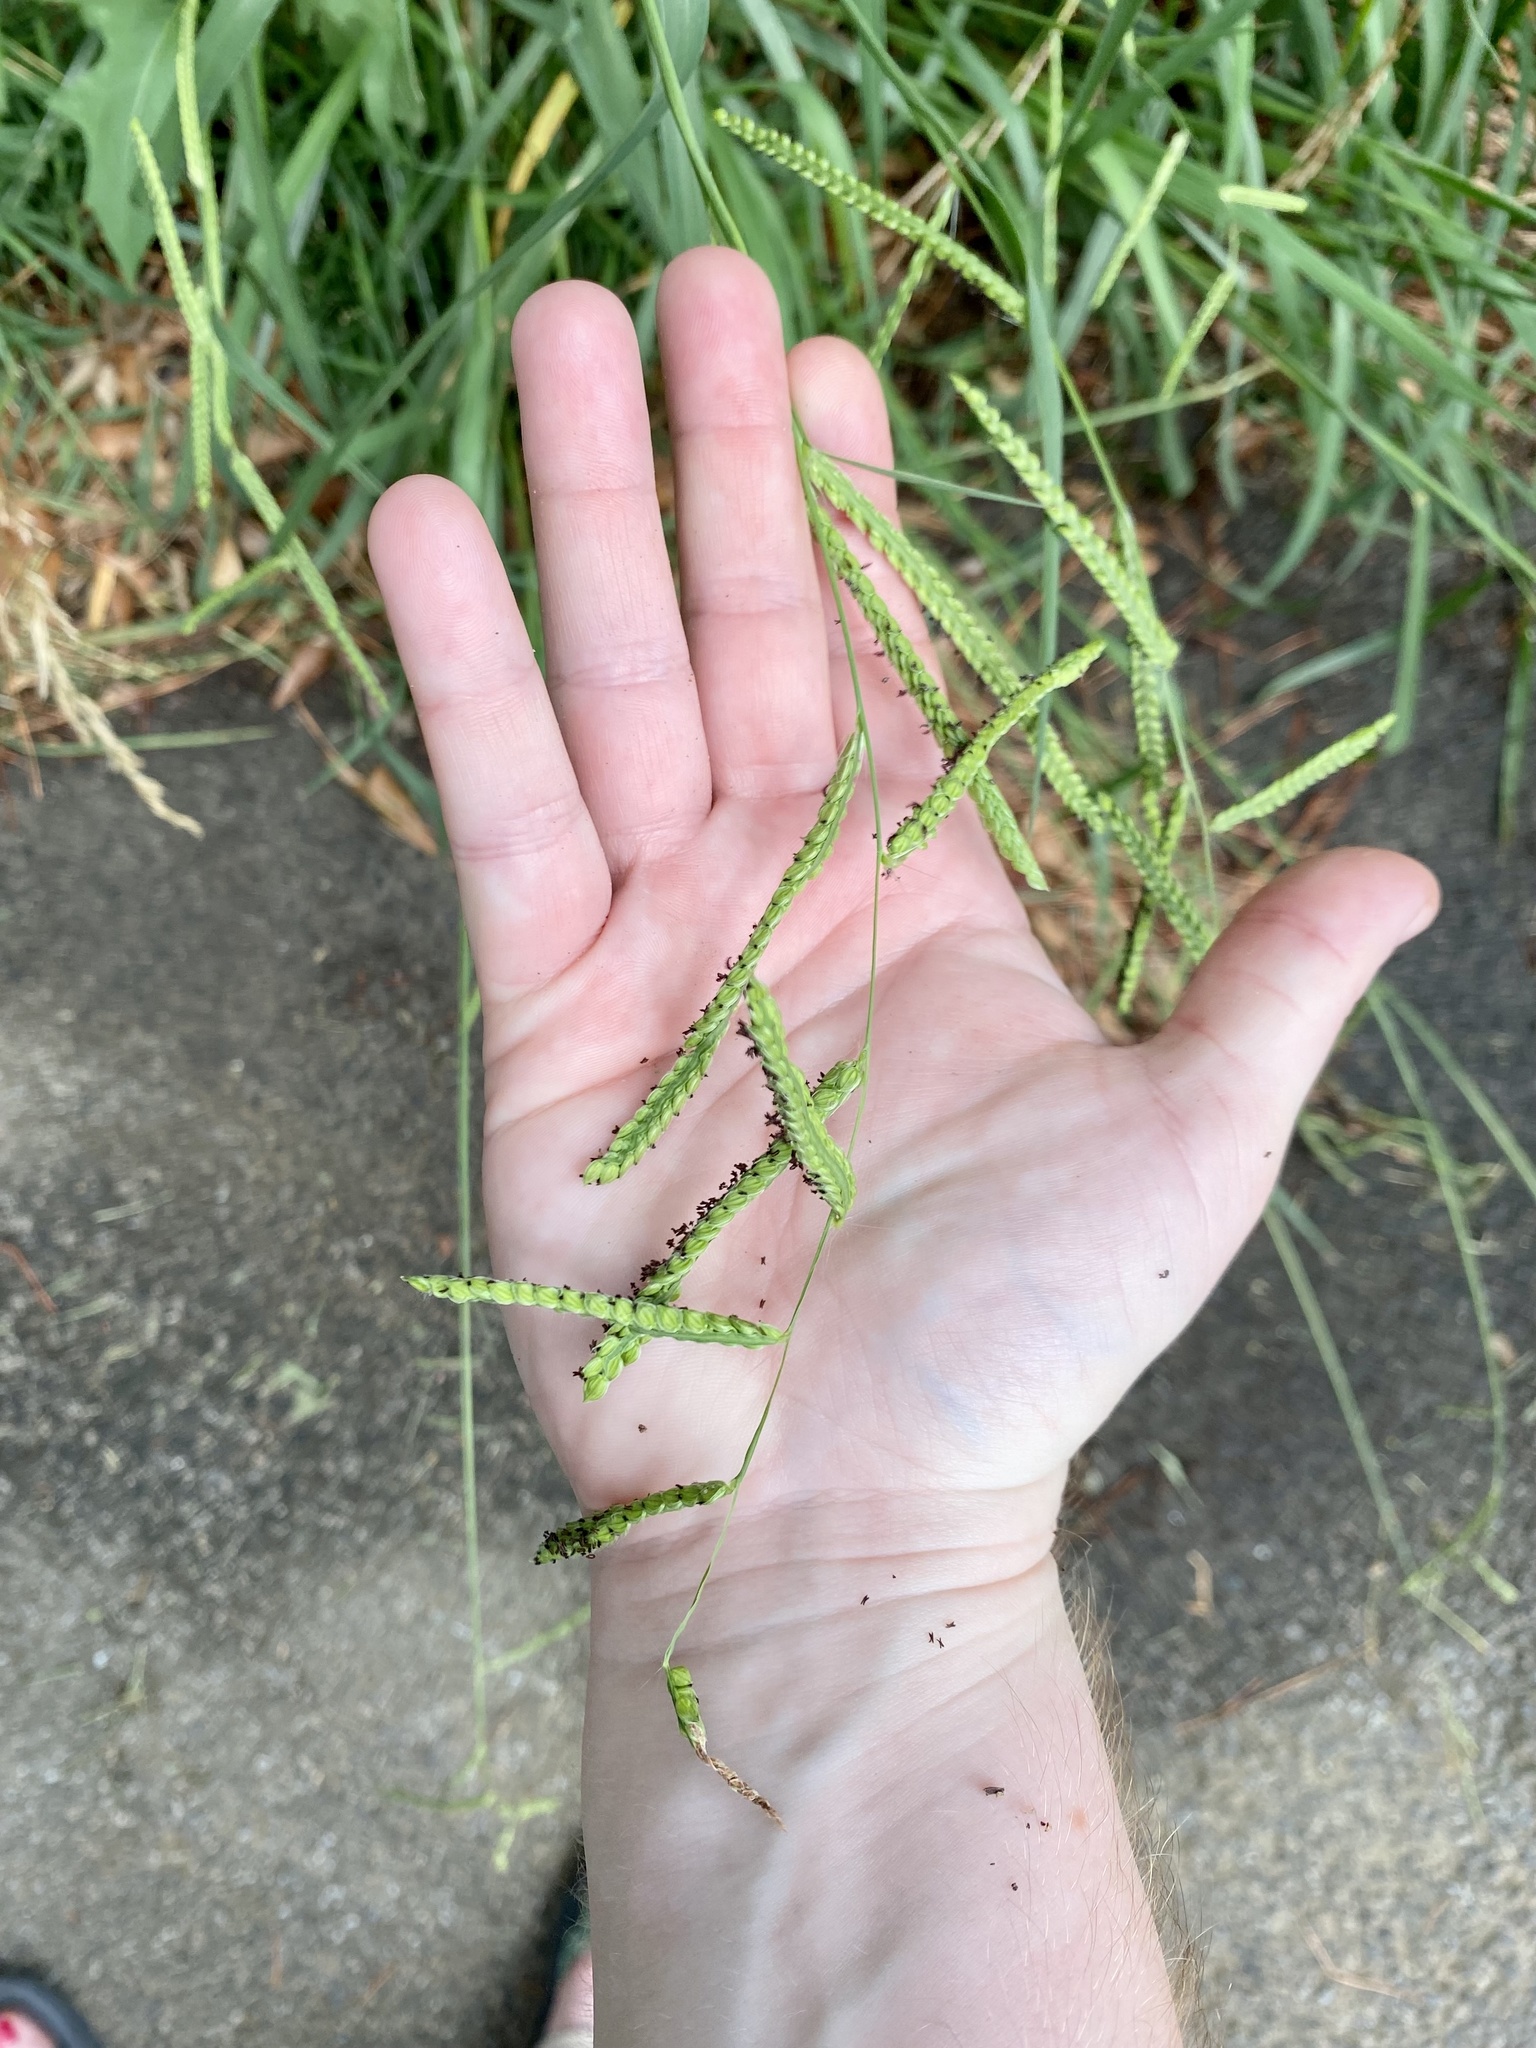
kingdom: Plantae
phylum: Tracheophyta
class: Liliopsida
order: Poales
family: Poaceae
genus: Paspalum
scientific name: Paspalum dilatatum
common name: Dallisgrass
